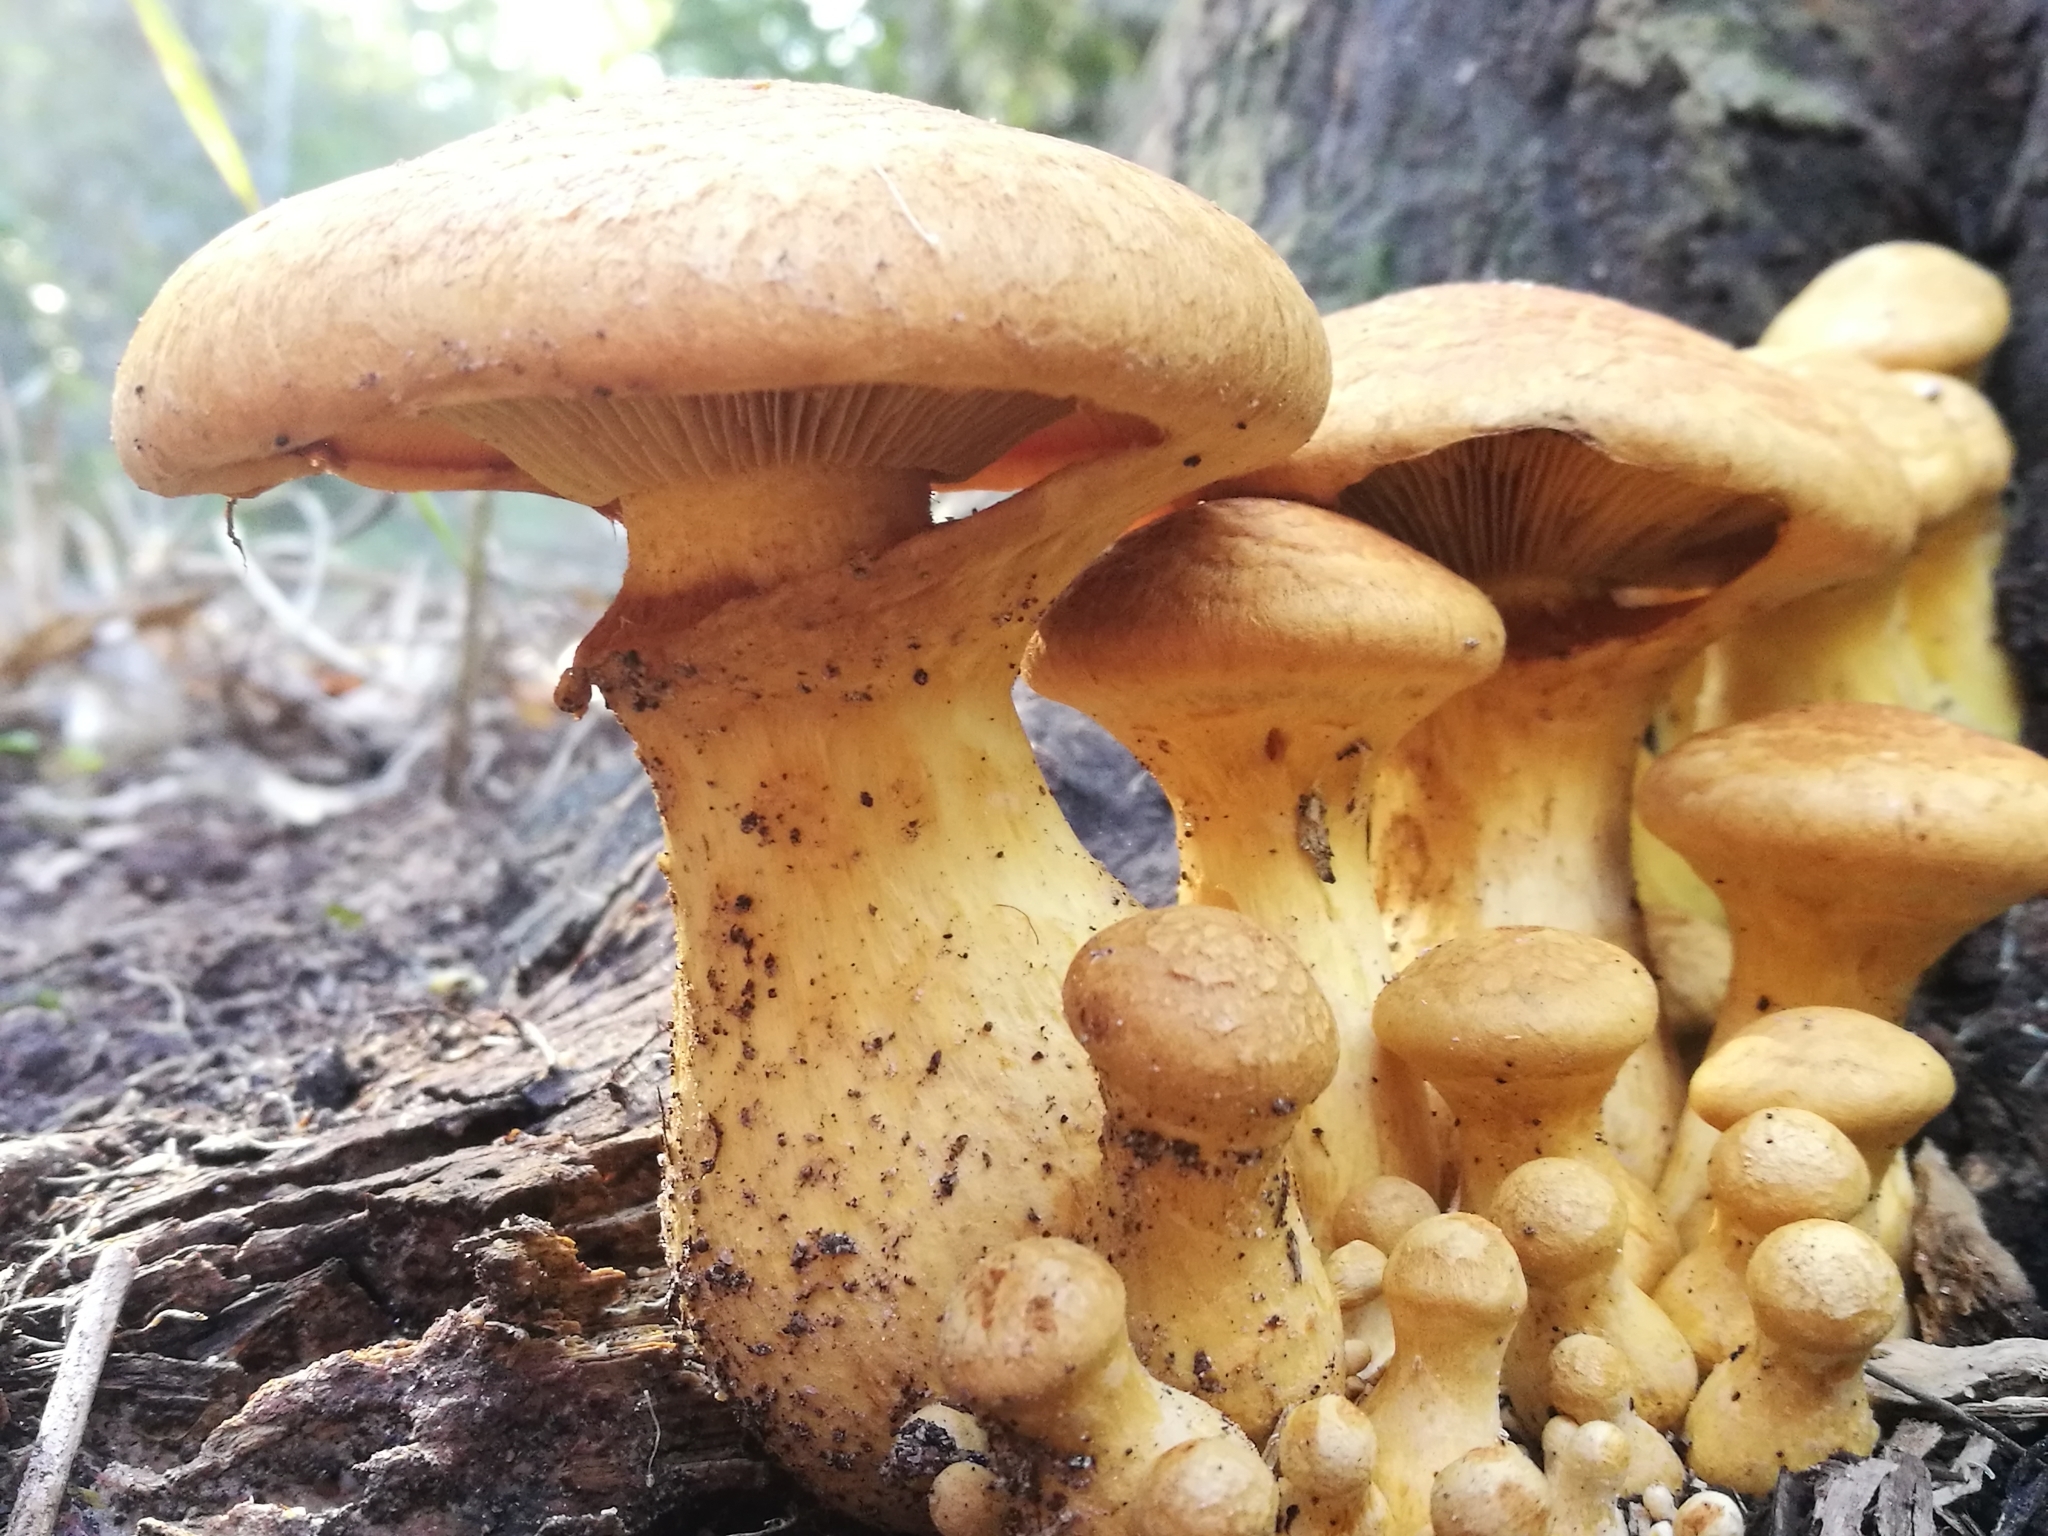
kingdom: Fungi
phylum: Basidiomycota
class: Agaricomycetes
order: Agaricales
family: Hymenogastraceae
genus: Gymnopilus
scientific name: Gymnopilus junonius
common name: Spectacular rustgill
